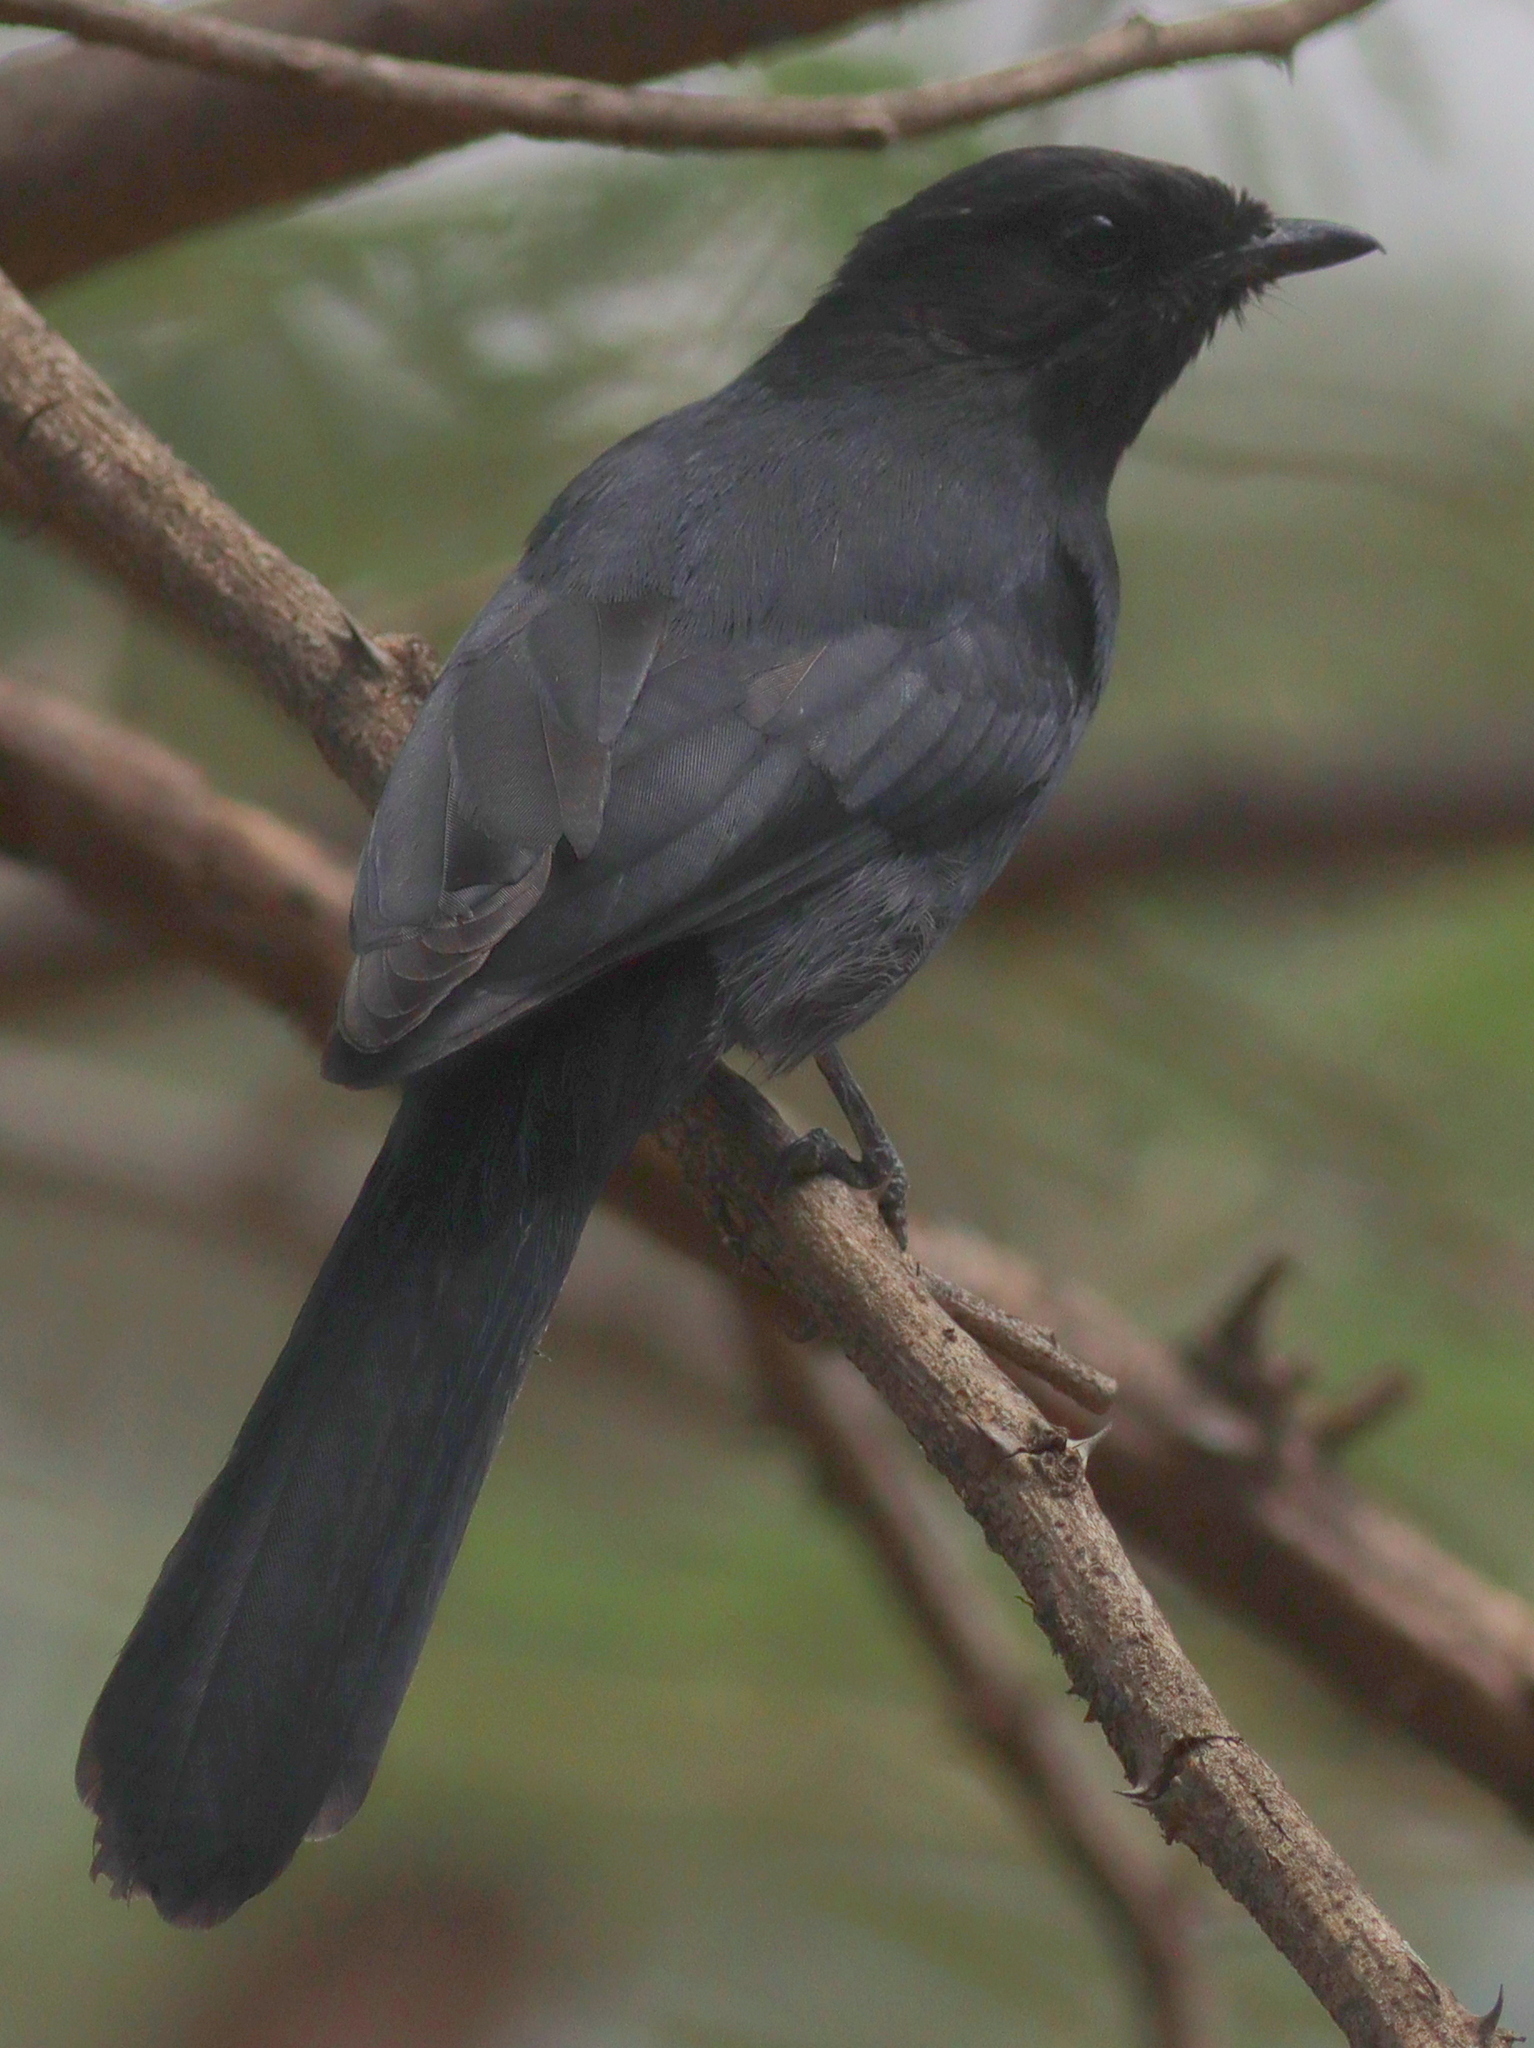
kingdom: Animalia
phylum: Chordata
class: Aves
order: Passeriformes
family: Muscicapidae
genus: Melaenornis
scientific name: Melaenornis edolioides
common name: Northern black flycatcher
